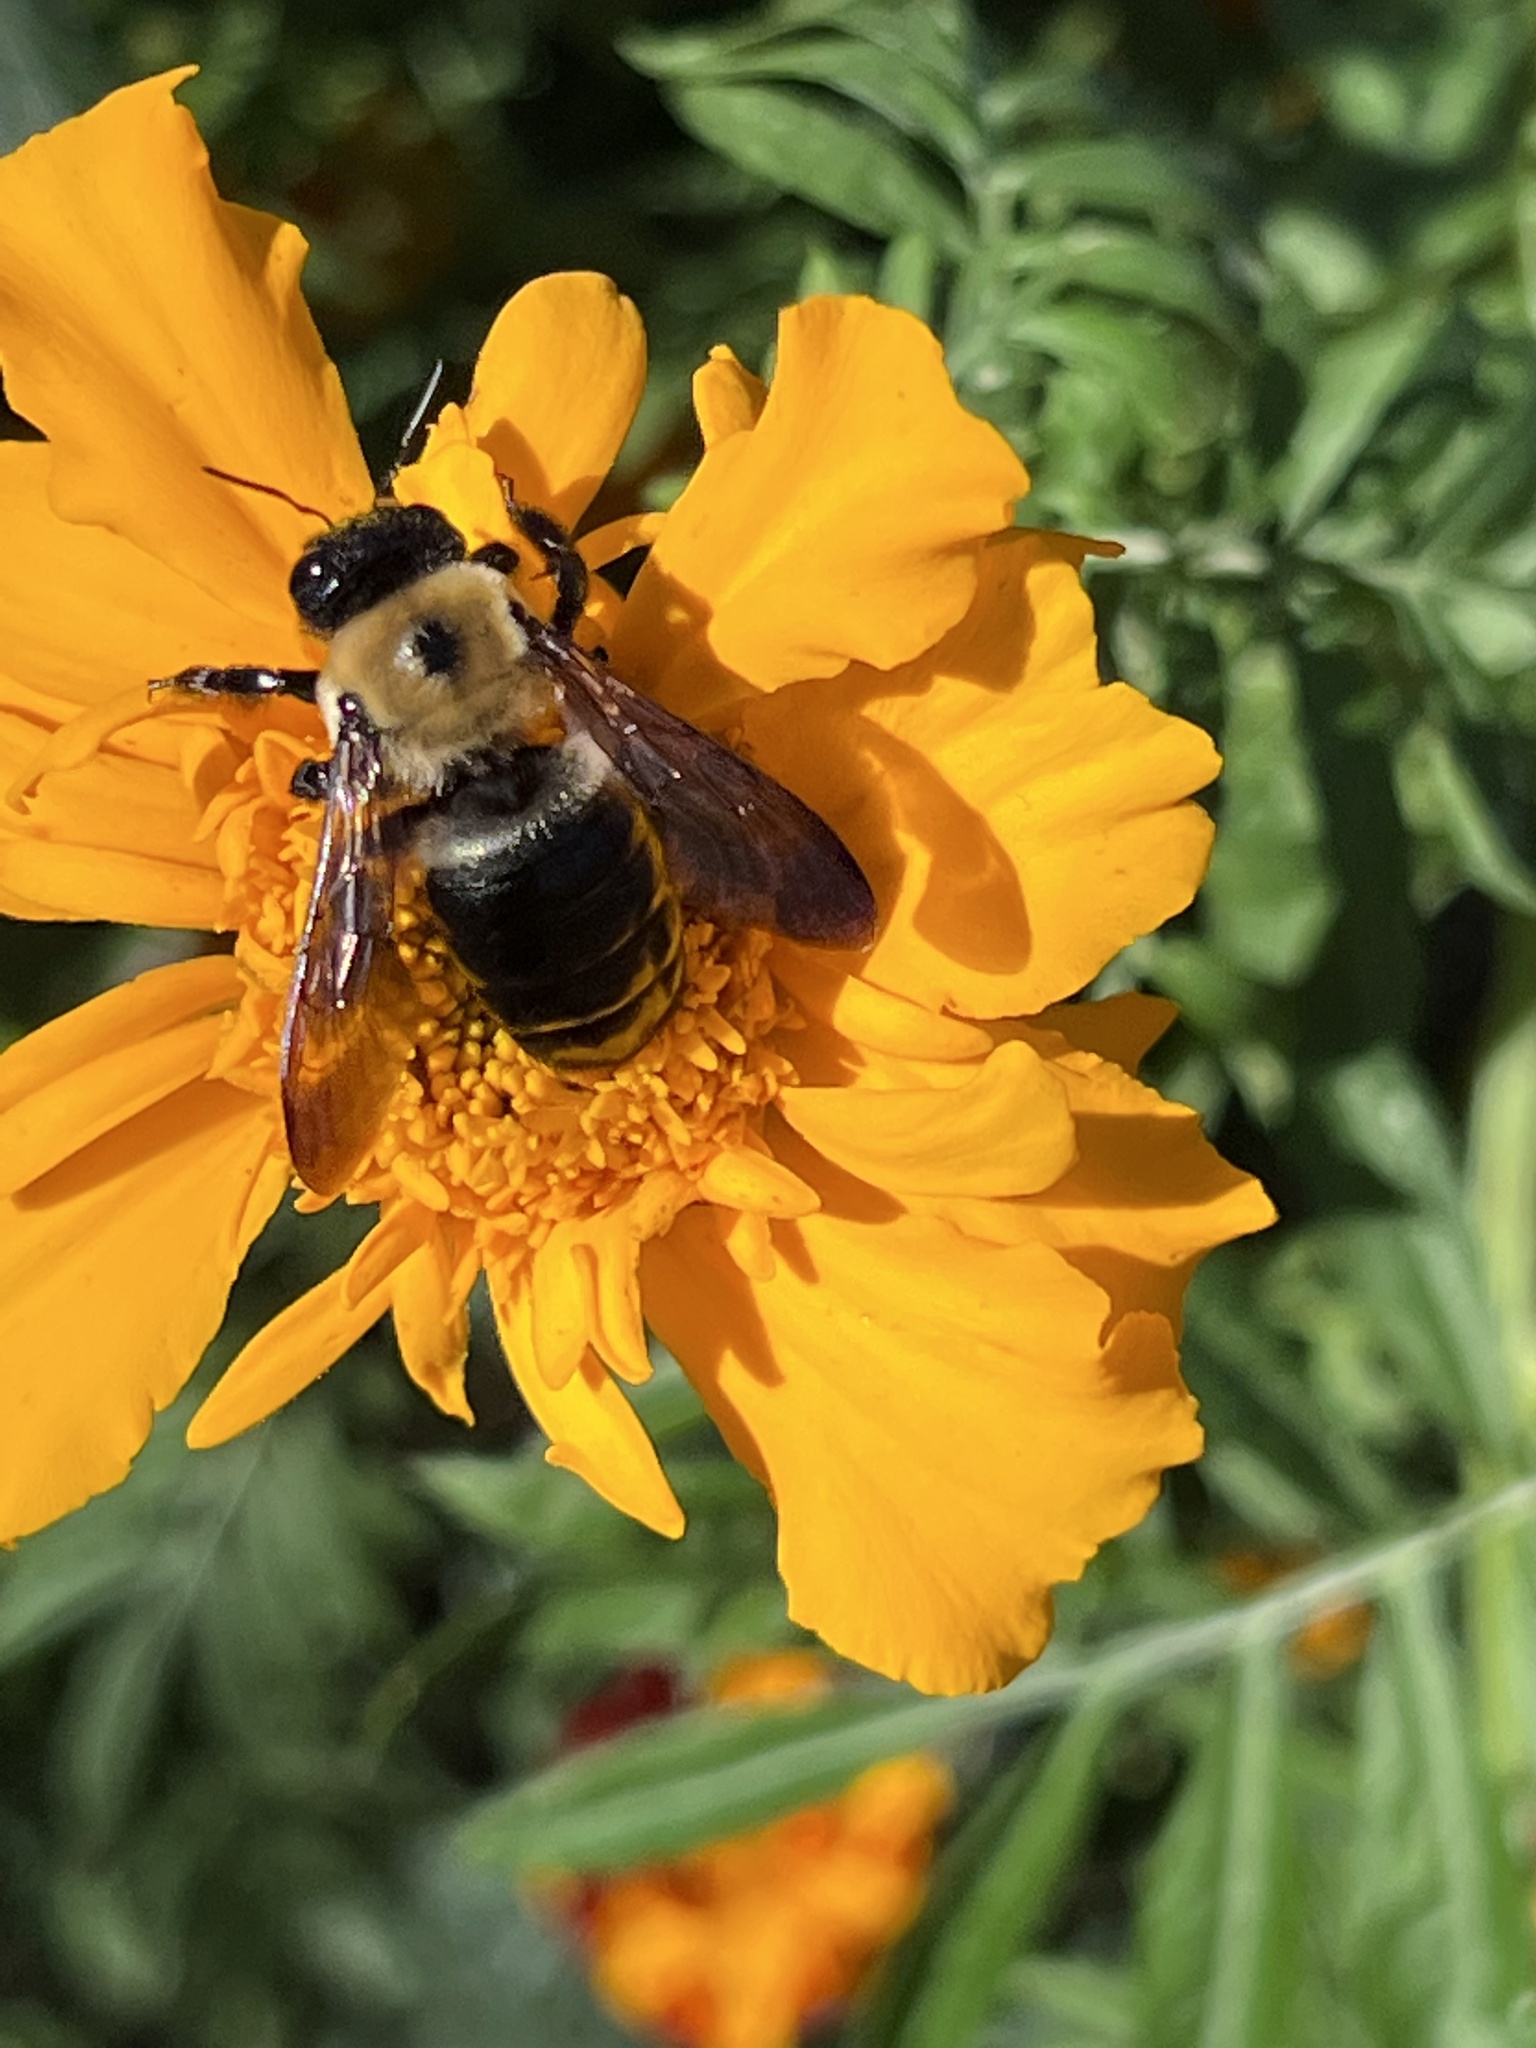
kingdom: Animalia
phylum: Arthropoda
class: Insecta
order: Hymenoptera
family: Apidae
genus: Xylocopa
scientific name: Xylocopa virginica
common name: Carpenter bee
